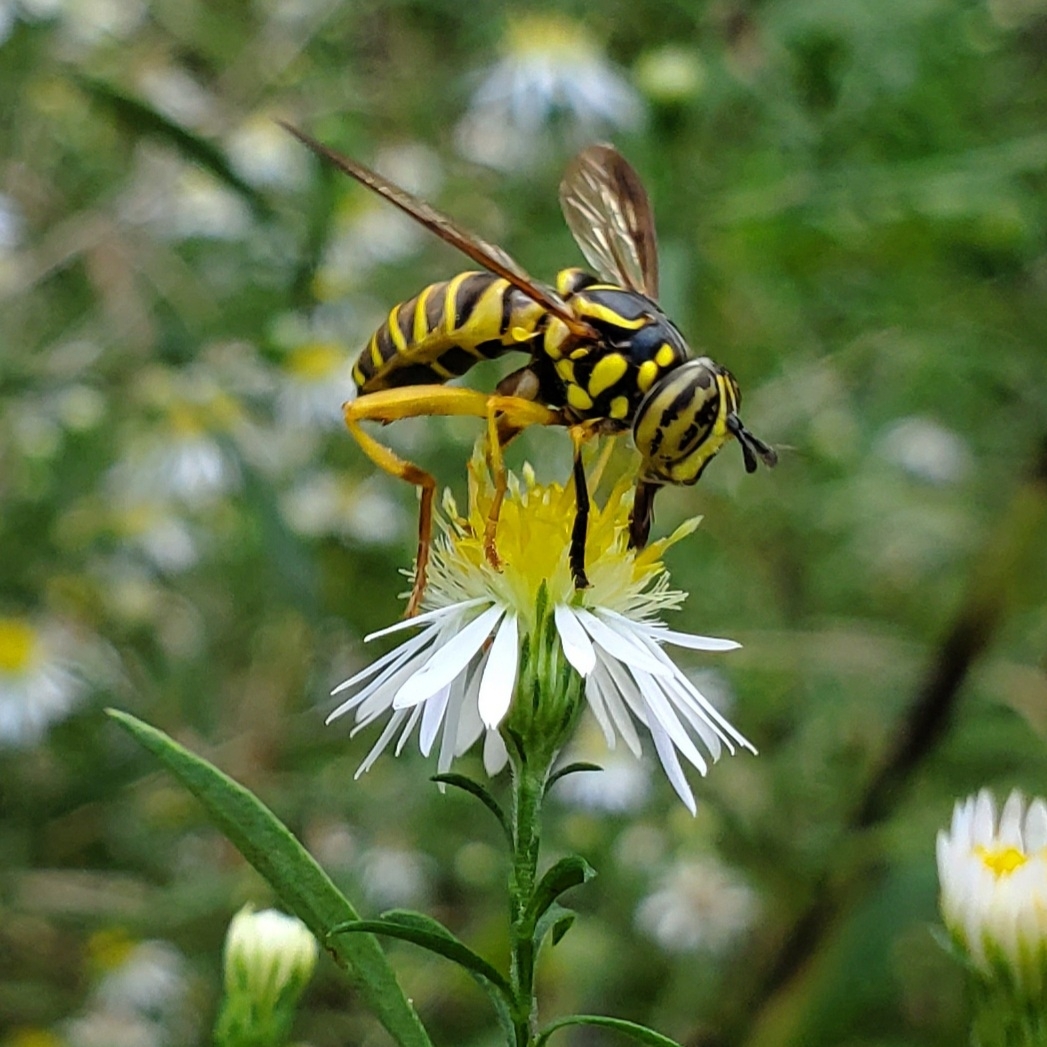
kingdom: Animalia
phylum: Arthropoda
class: Insecta
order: Diptera
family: Syrphidae
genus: Spilomyia
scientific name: Spilomyia longicornis
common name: Eastern hornet fly
